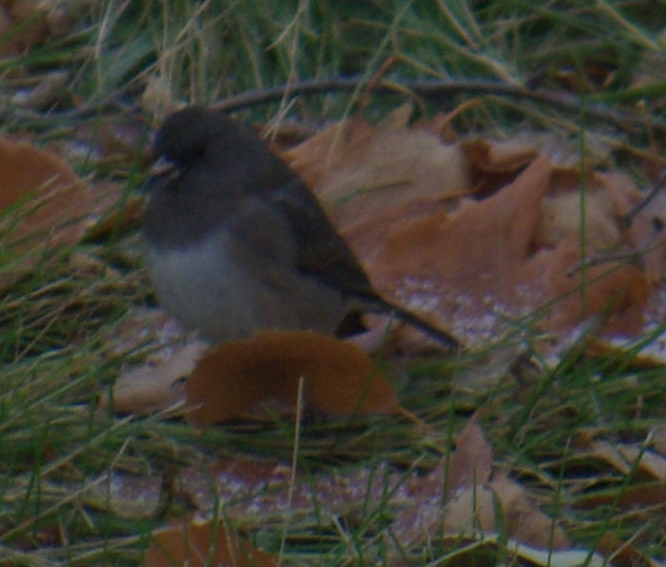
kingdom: Animalia
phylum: Chordata
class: Aves
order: Passeriformes
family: Passerellidae
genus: Junco
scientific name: Junco hyemalis
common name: Dark-eyed junco
